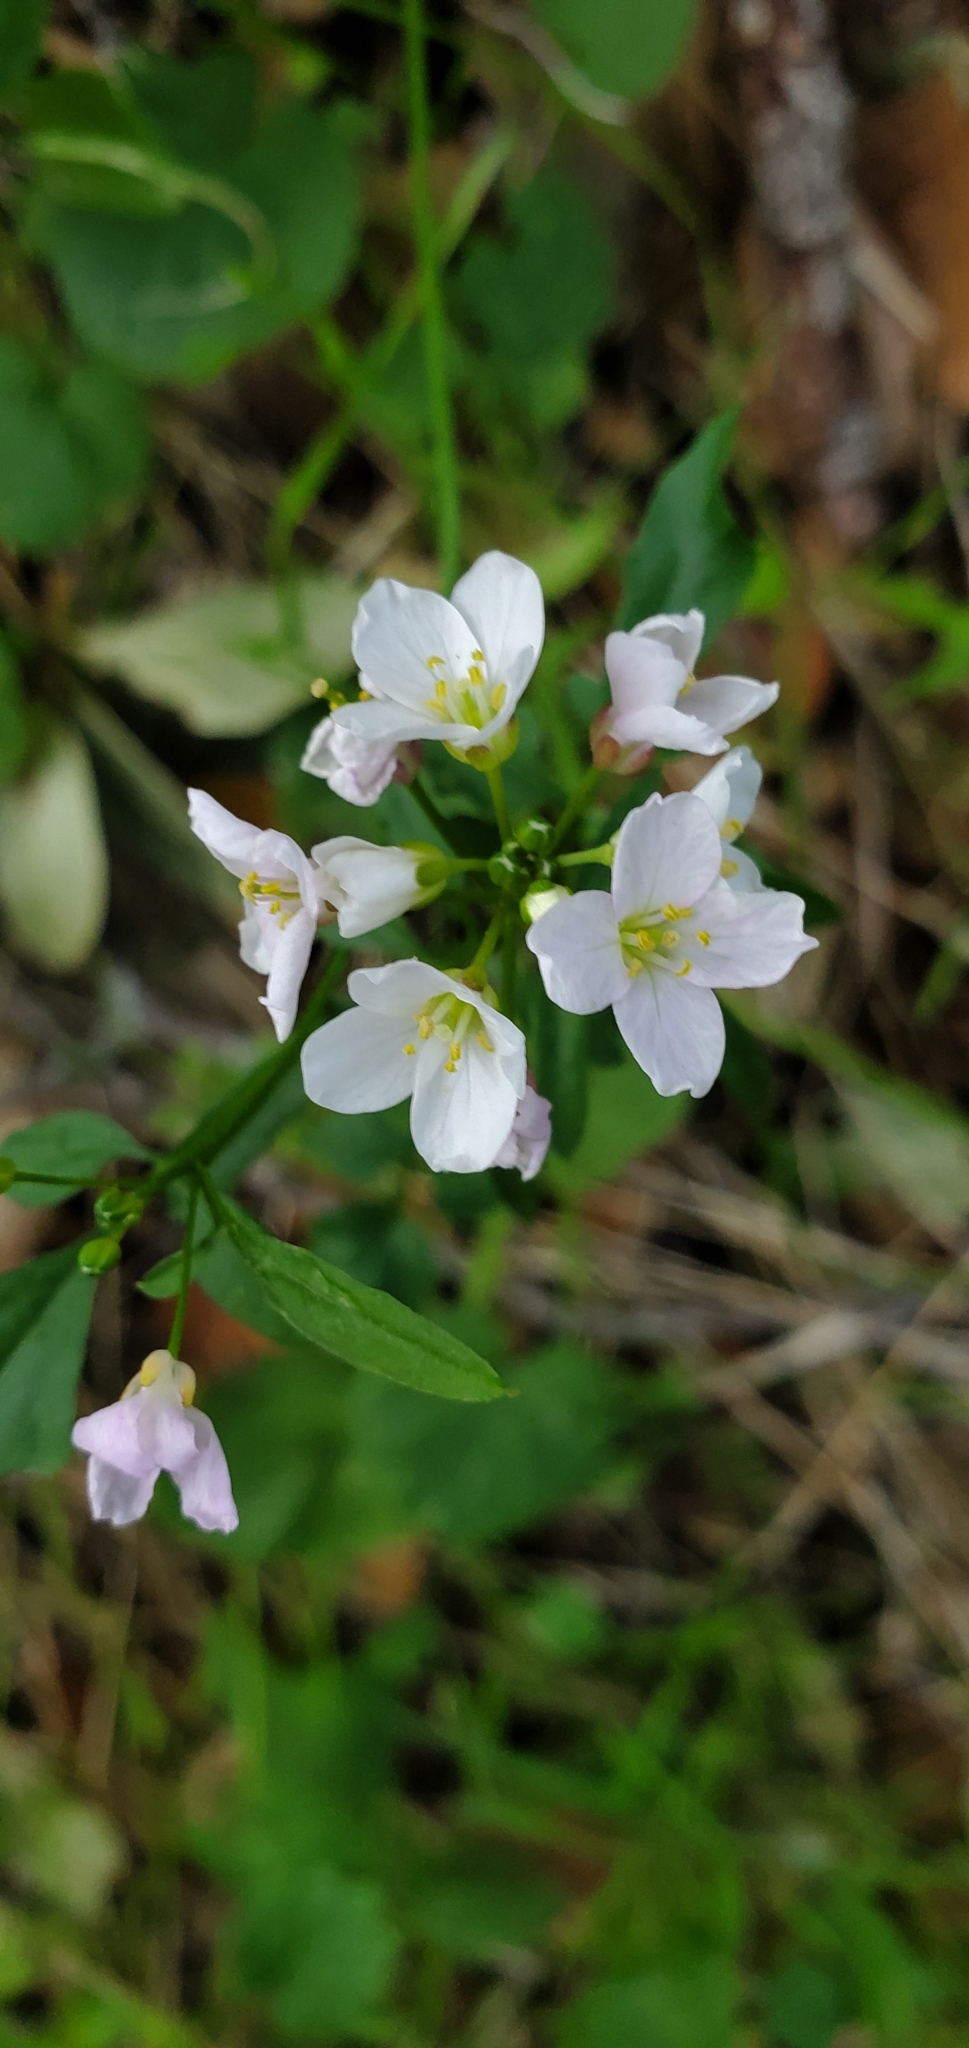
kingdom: Plantae
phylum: Tracheophyta
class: Magnoliopsida
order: Brassicales
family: Brassicaceae
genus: Cardamine
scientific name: Cardamine californica
